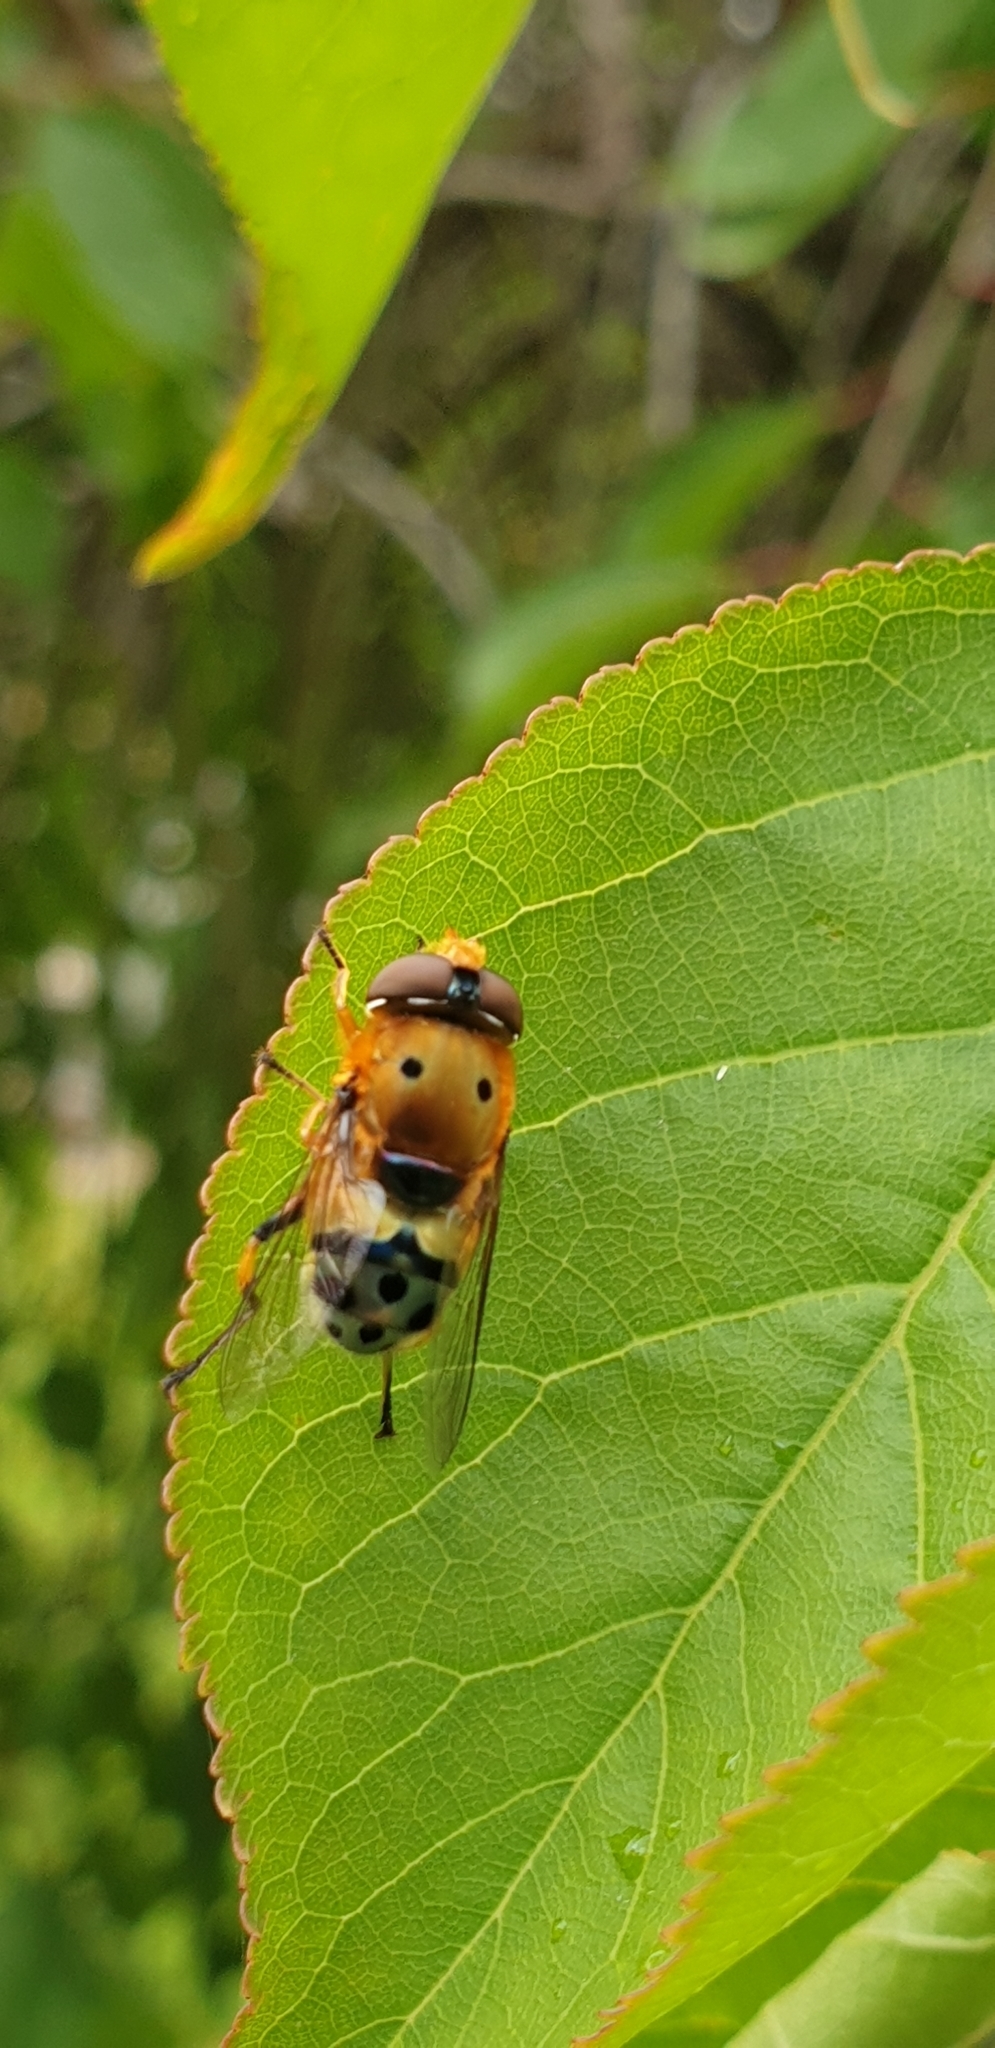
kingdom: Animalia
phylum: Arthropoda
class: Insecta
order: Diptera
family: Syrphidae
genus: Austalis
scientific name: Austalis pulchella
